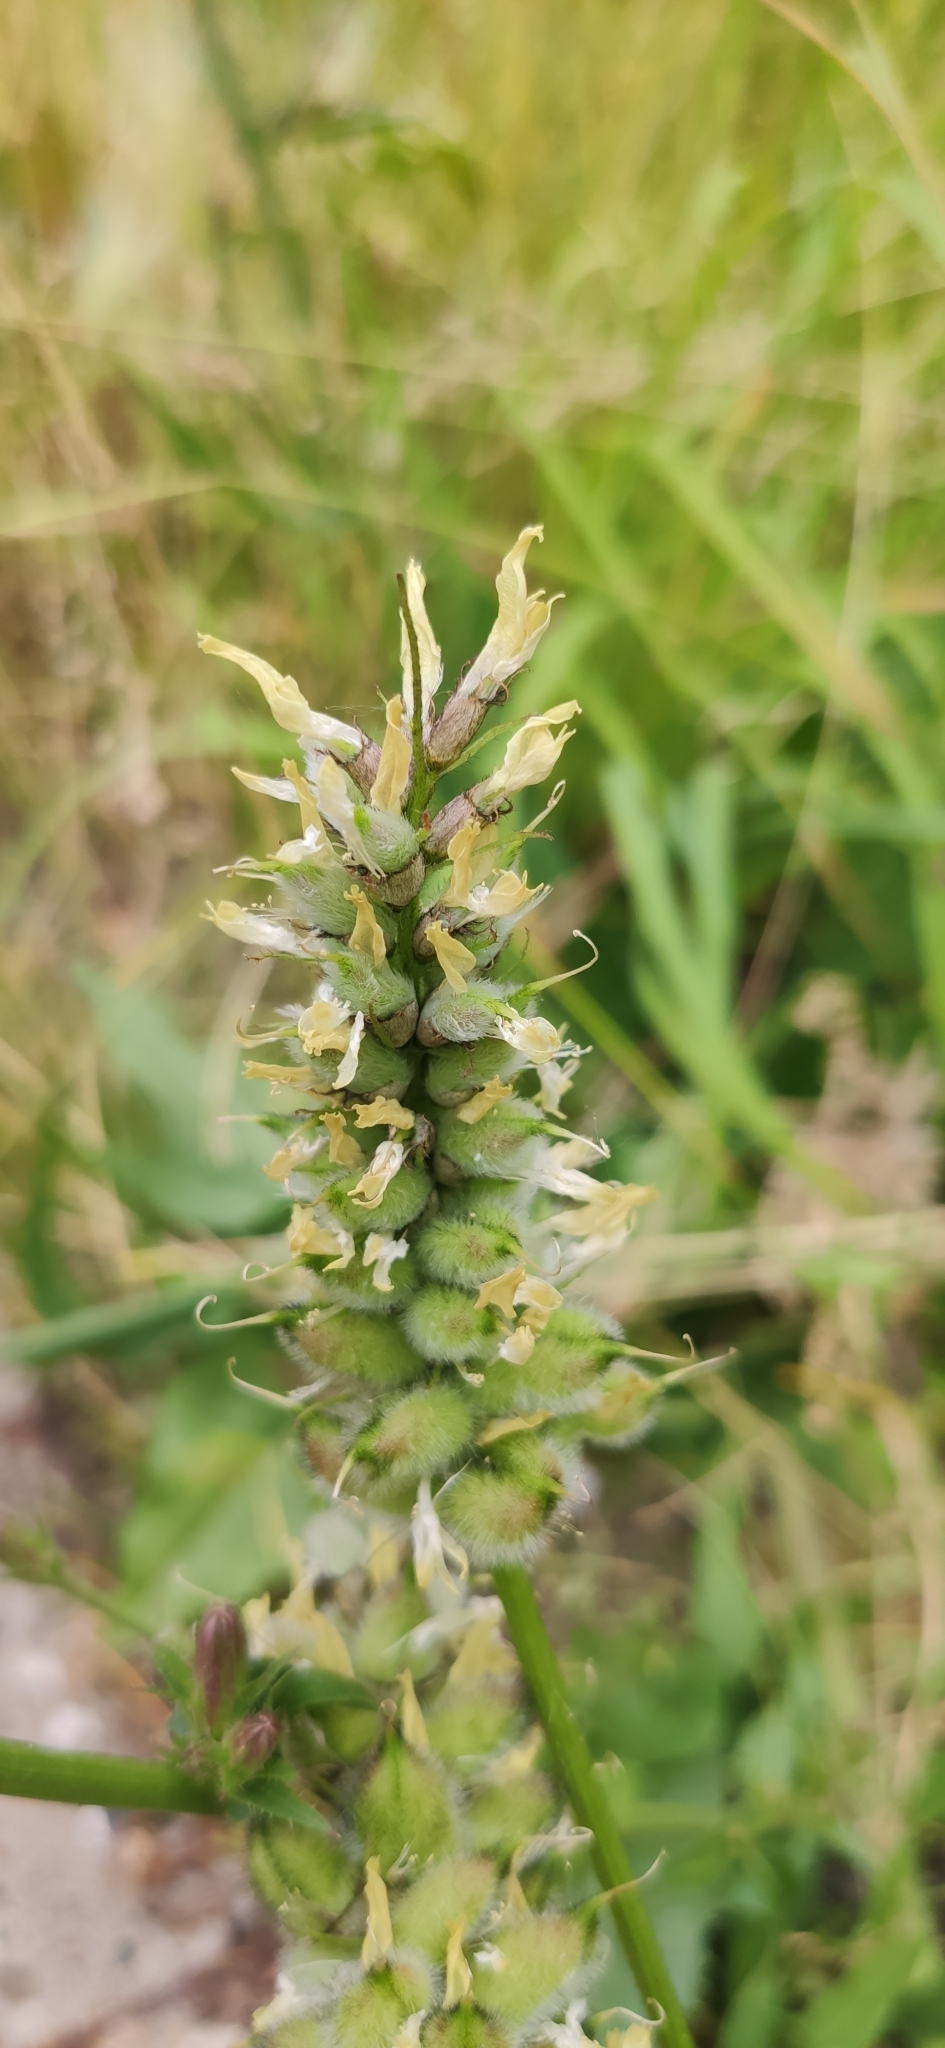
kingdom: Plantae
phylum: Tracheophyta
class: Magnoliopsida
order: Fabales
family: Fabaceae
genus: Astragalus
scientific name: Astragalus cicer
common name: Chick-pea milk-vetch
